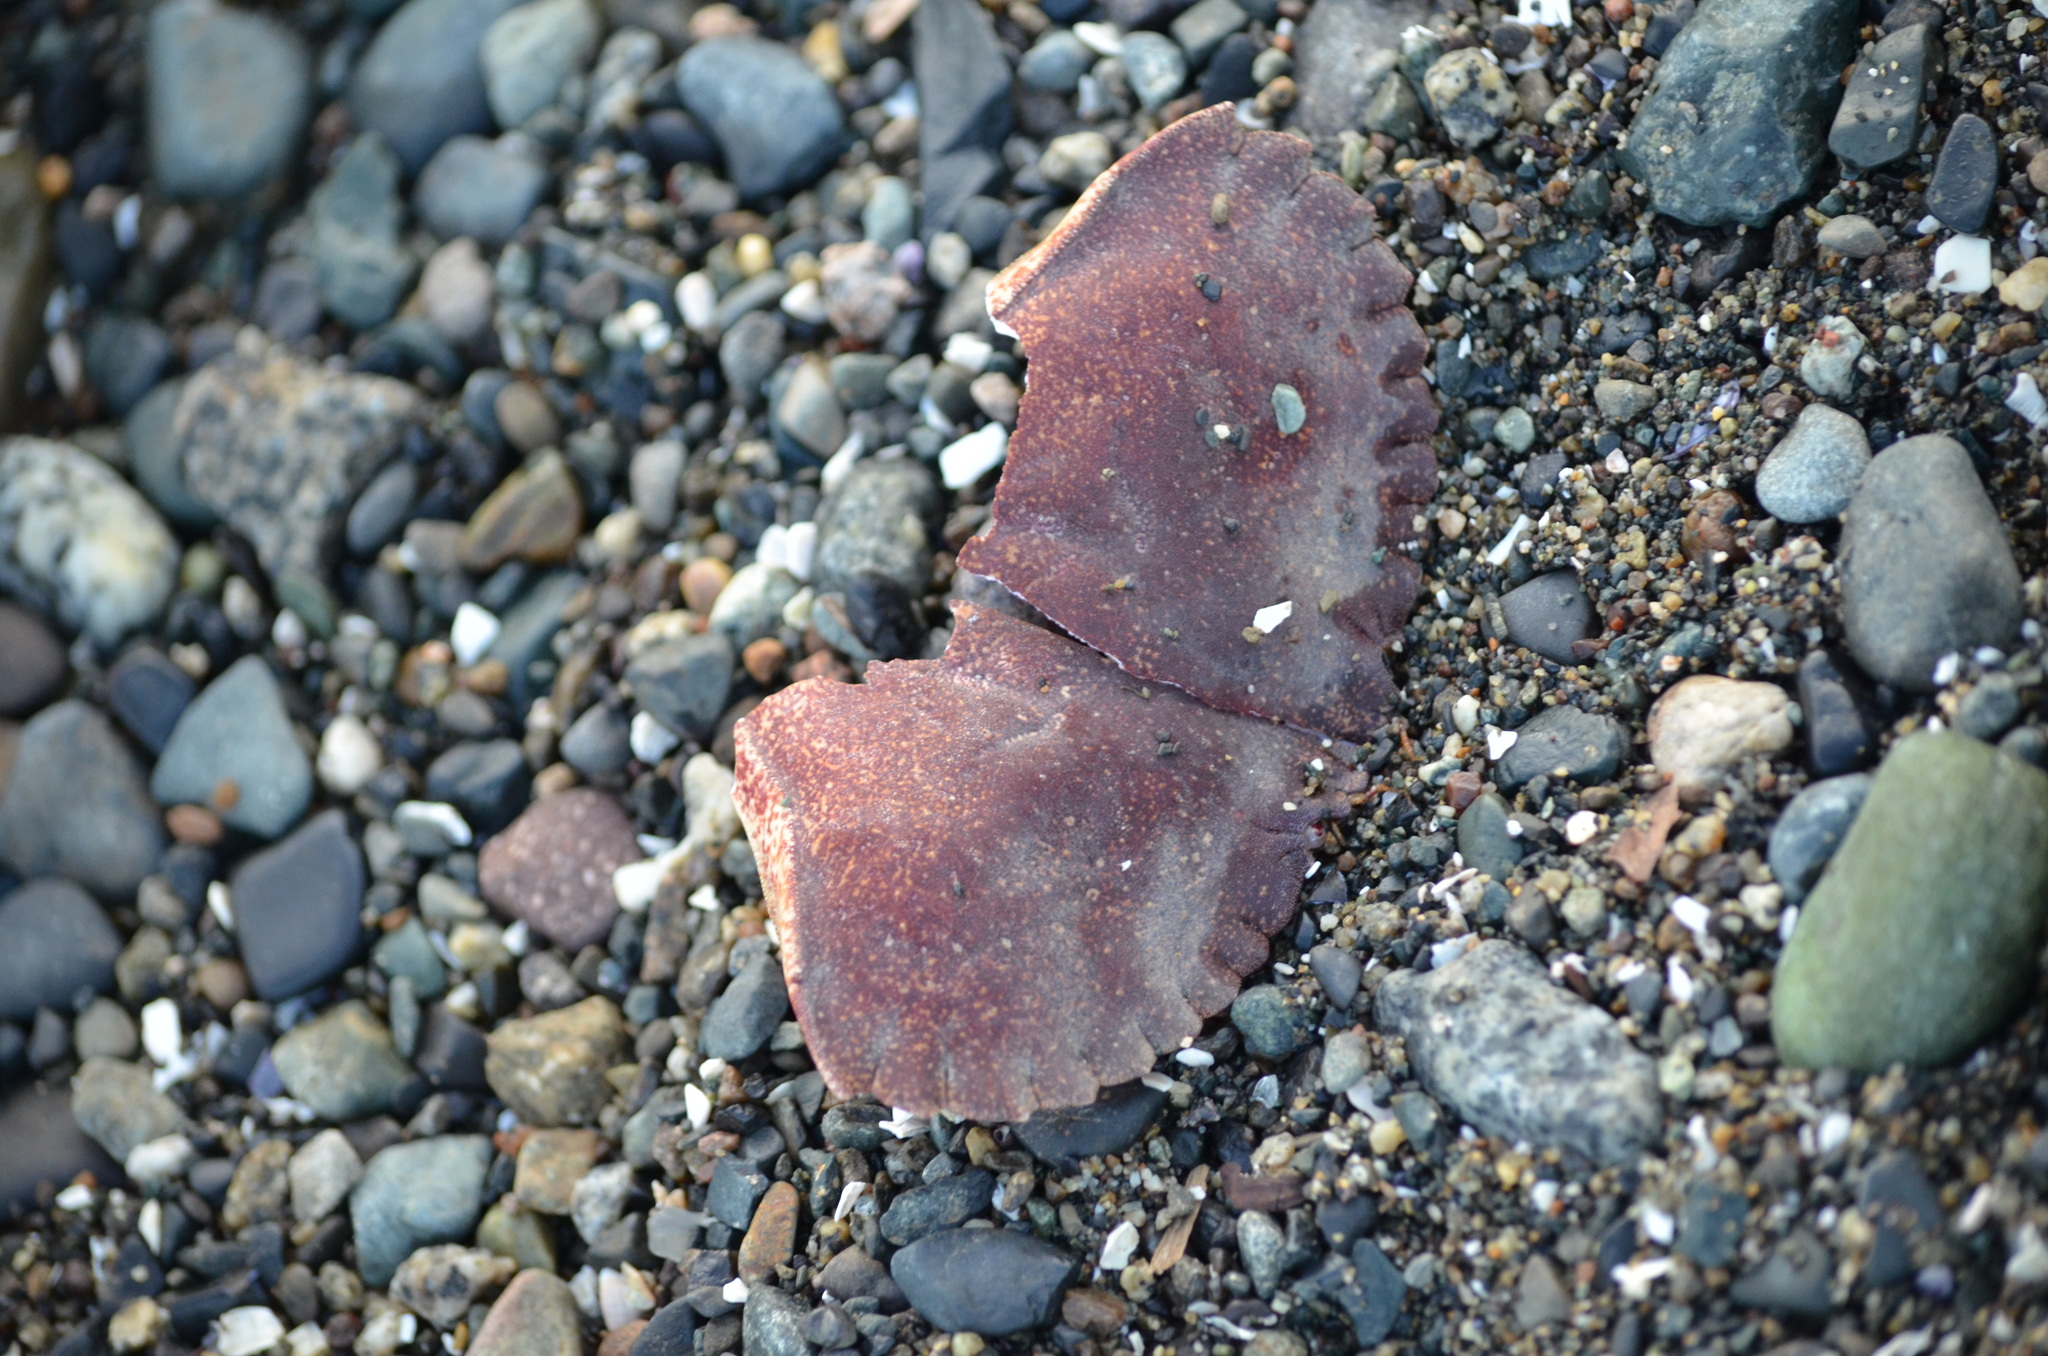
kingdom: Animalia
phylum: Arthropoda
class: Malacostraca
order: Decapoda
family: Cancridae
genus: Cancer
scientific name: Cancer productus
